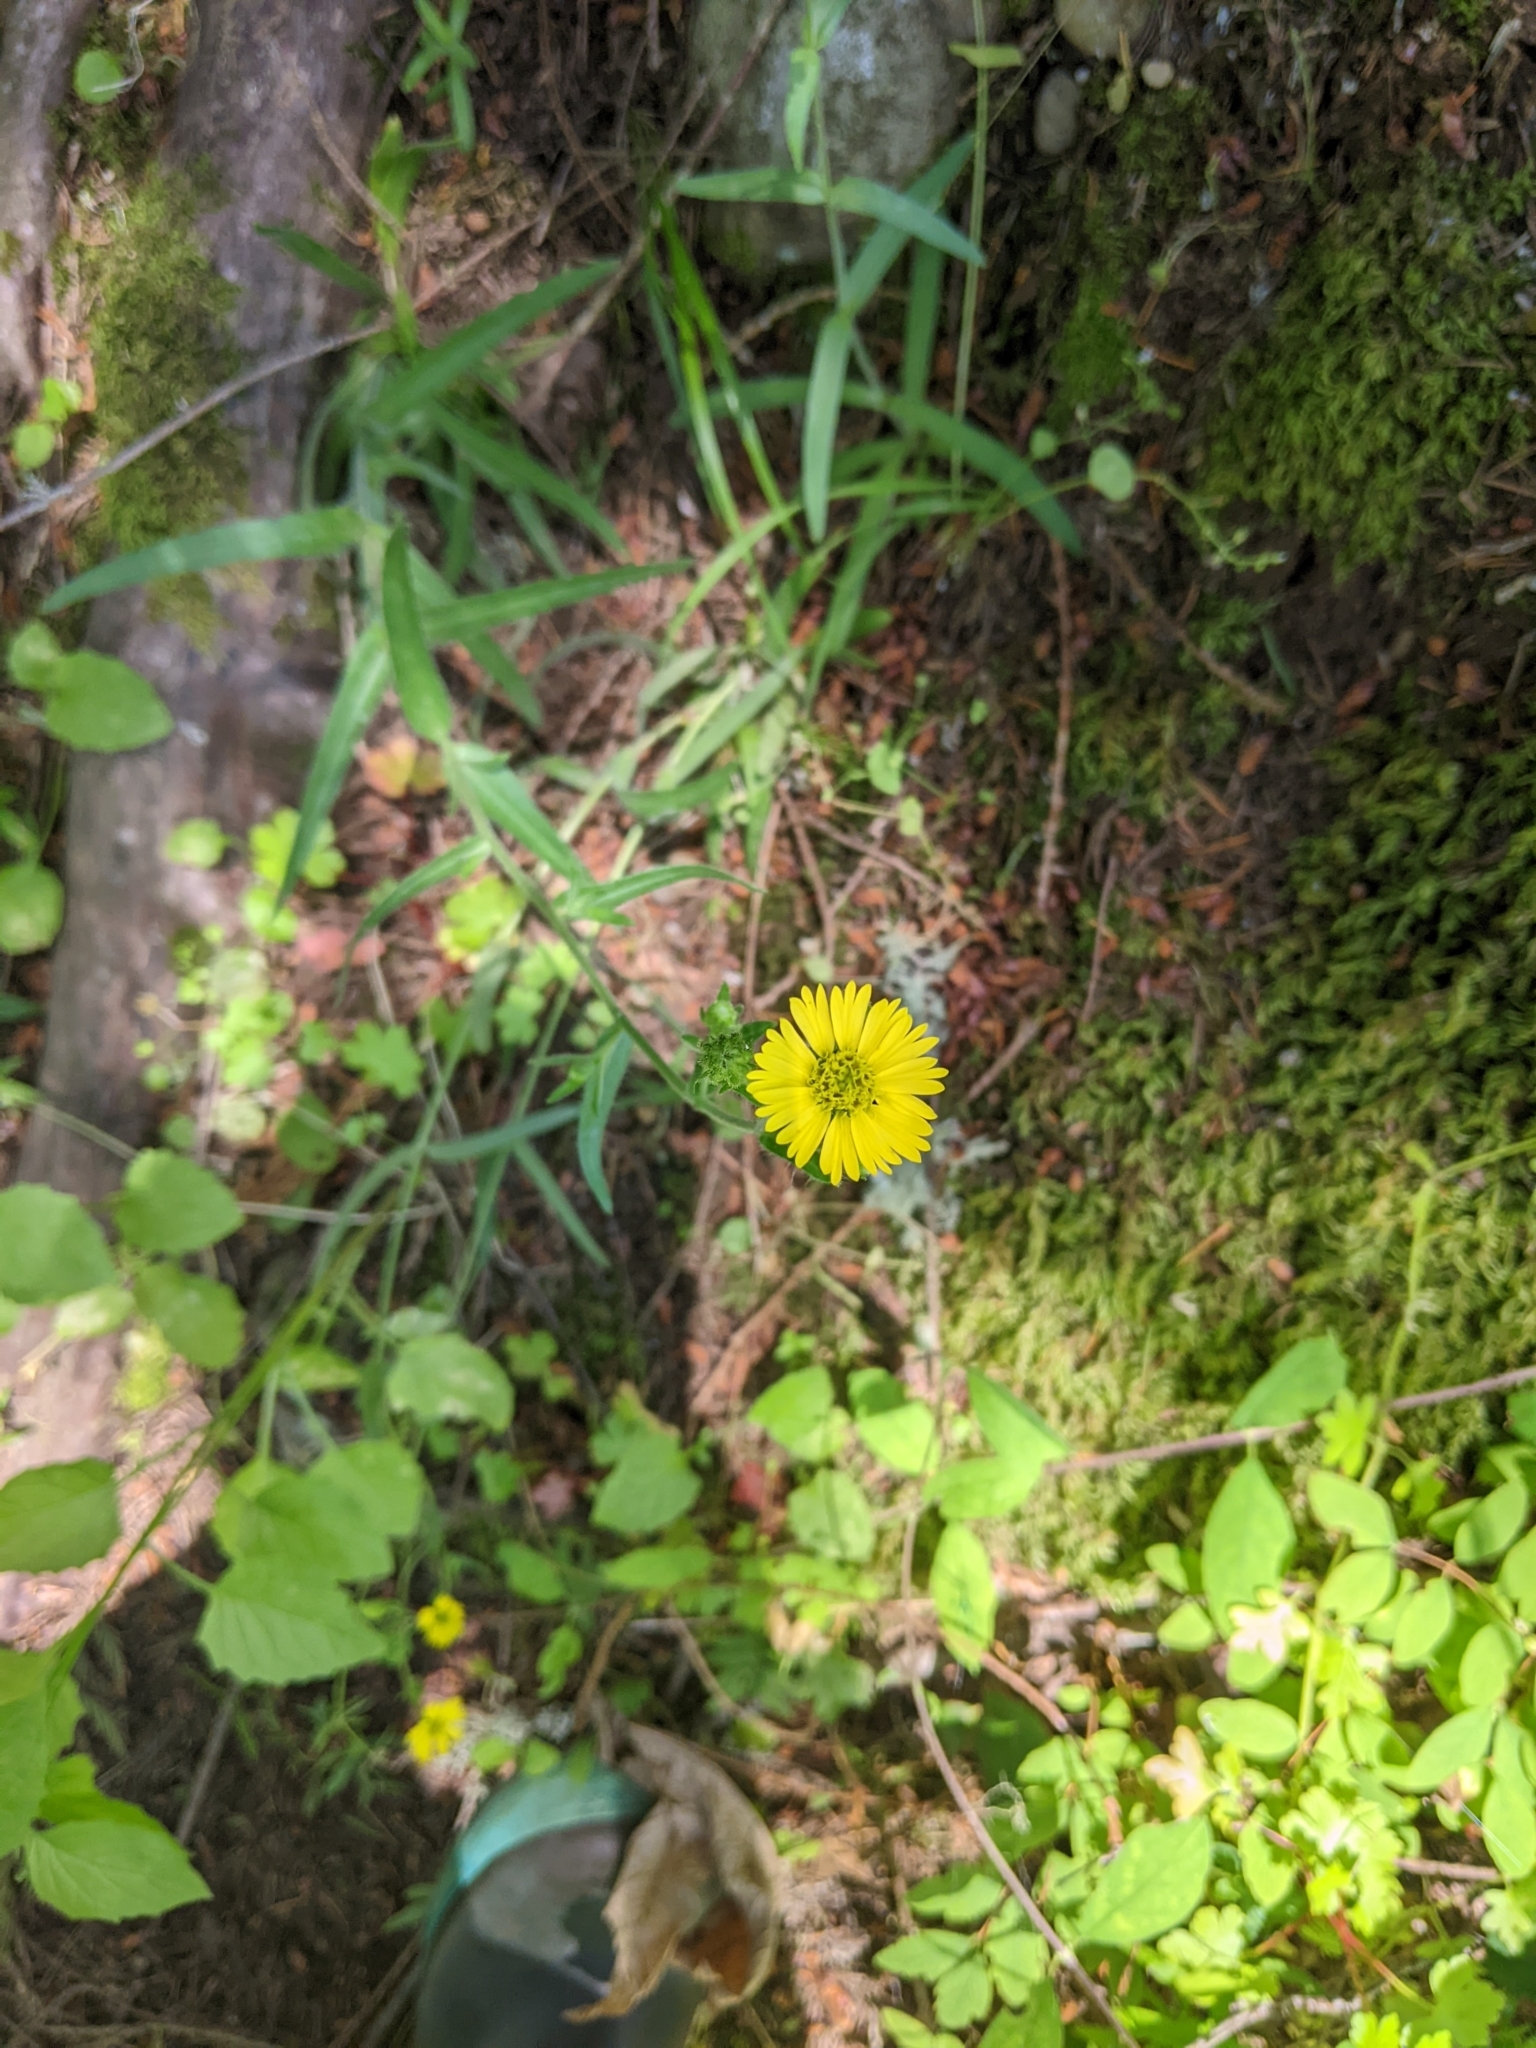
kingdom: Plantae
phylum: Tracheophyta
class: Magnoliopsida
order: Asterales
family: Asteraceae
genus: Anisocarpus
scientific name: Anisocarpus madioides
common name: Woodland madia
